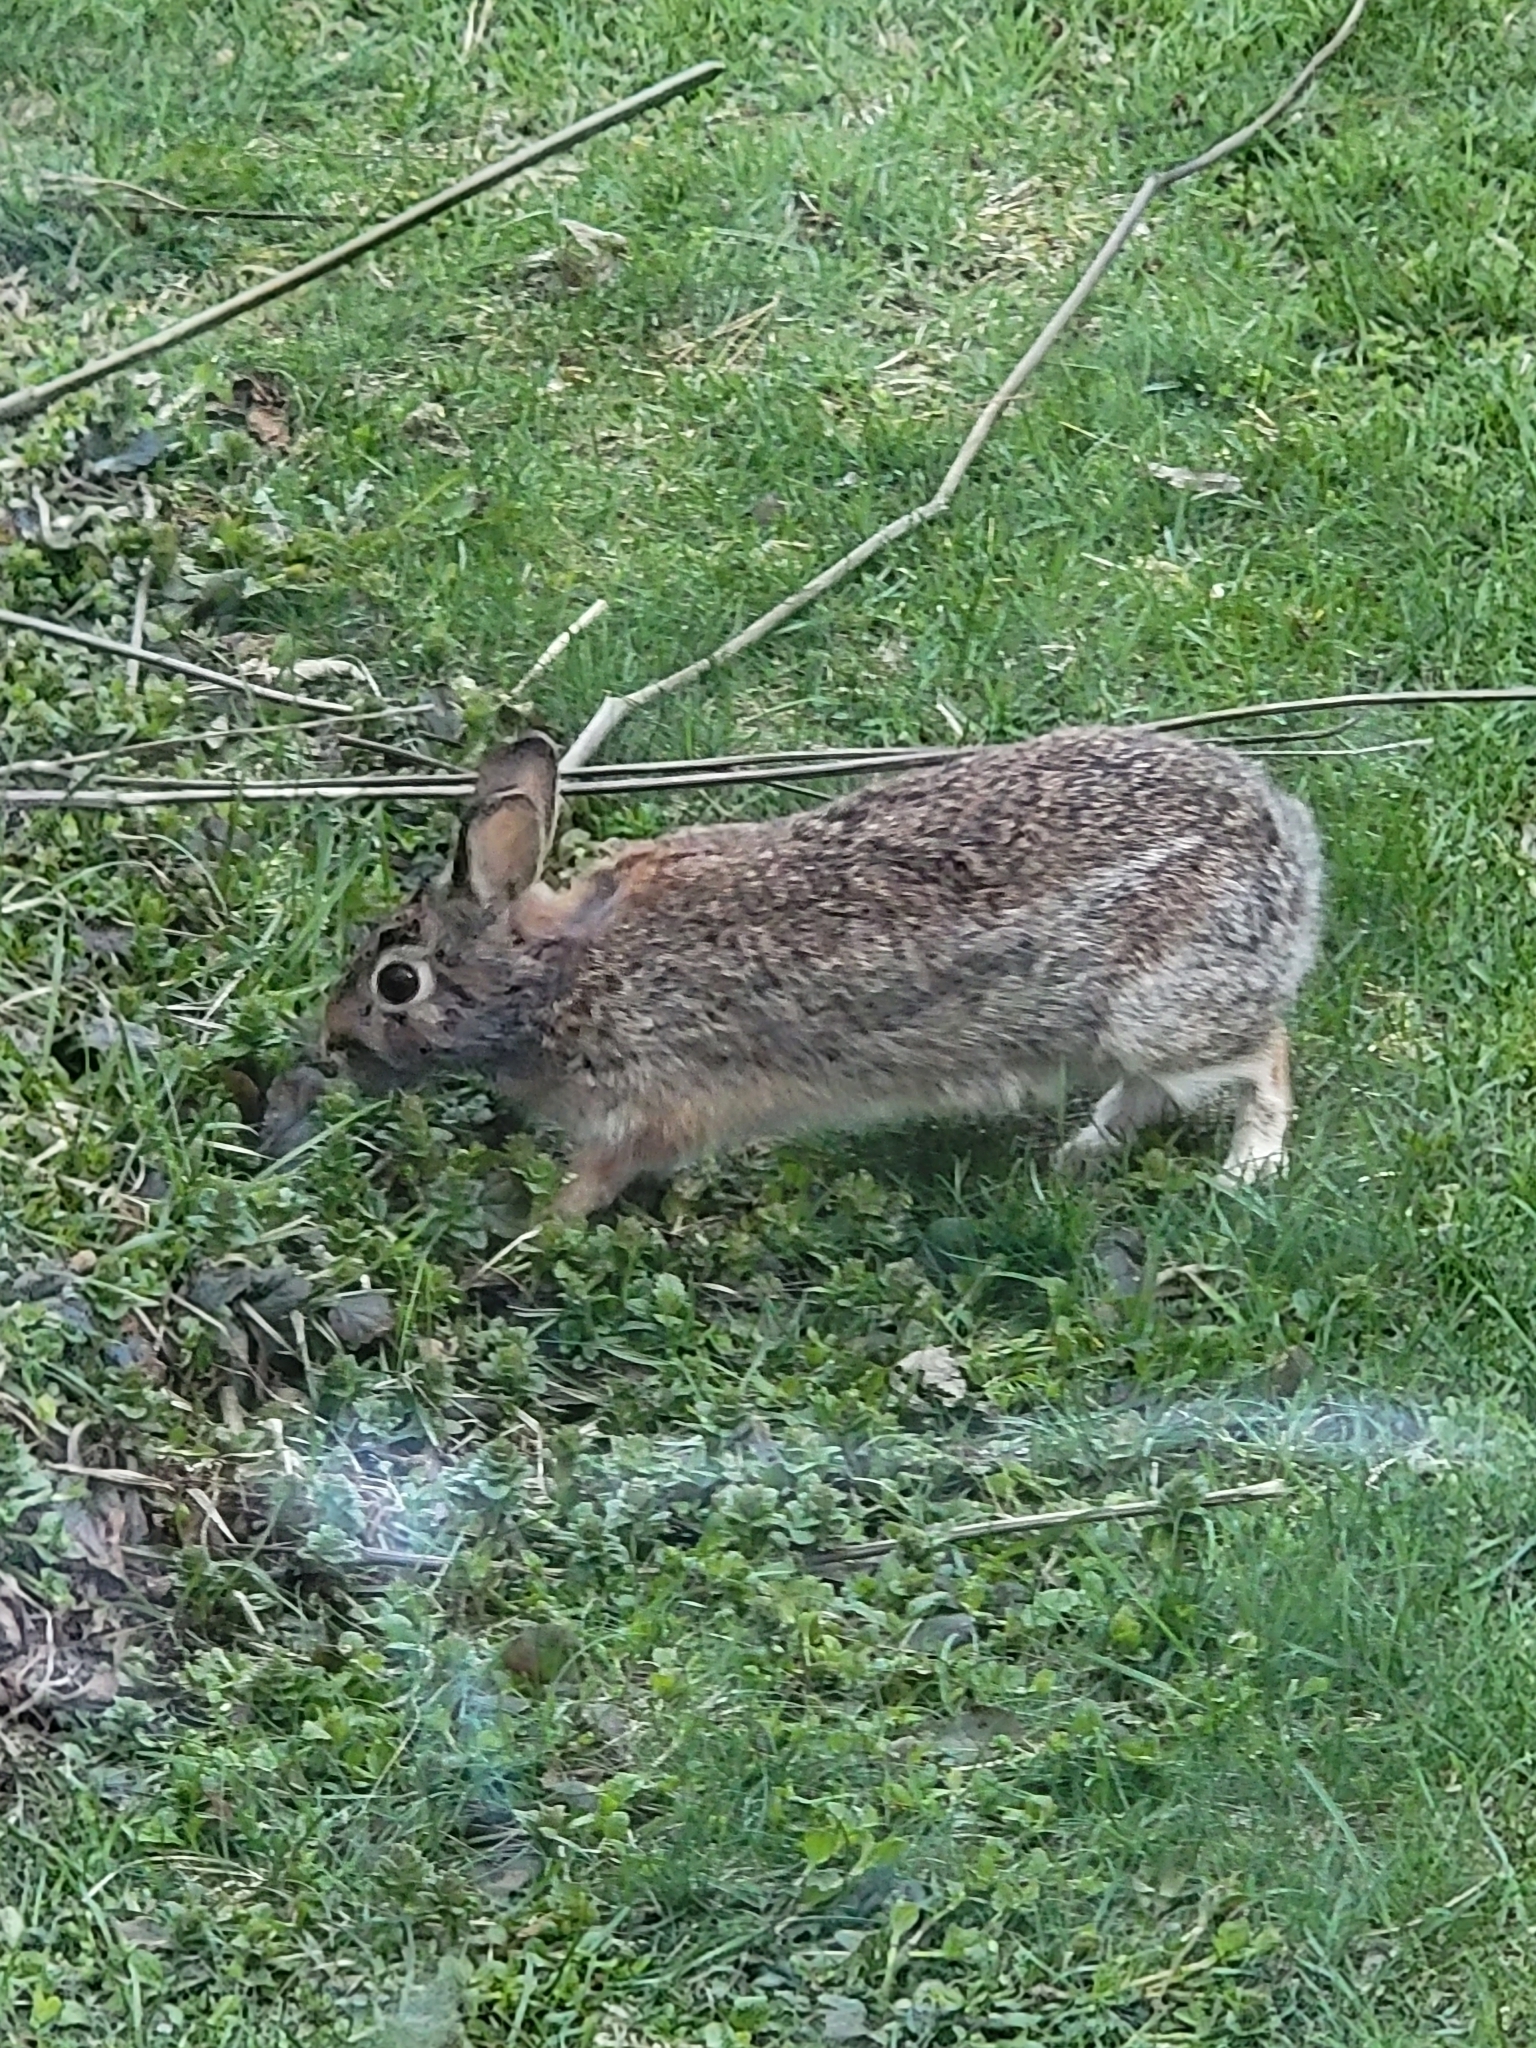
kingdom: Animalia
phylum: Chordata
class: Mammalia
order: Lagomorpha
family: Leporidae
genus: Sylvilagus
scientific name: Sylvilagus floridanus
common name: Eastern cottontail
